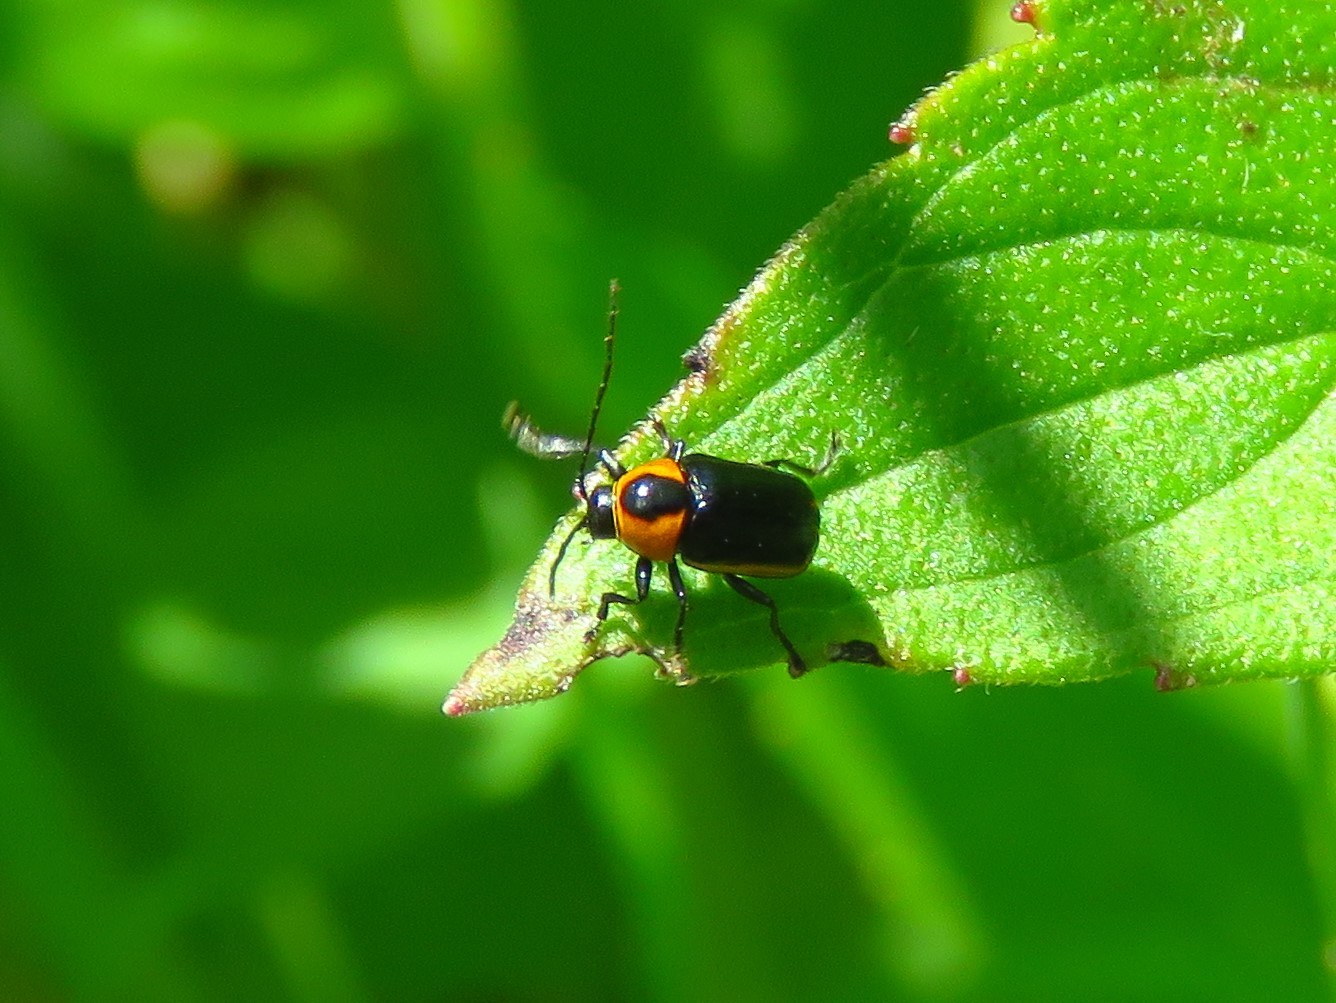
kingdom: Animalia
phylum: Arthropoda
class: Insecta
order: Coleoptera
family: Chrysomelidae
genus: Bassareus
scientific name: Bassareus lituratus
